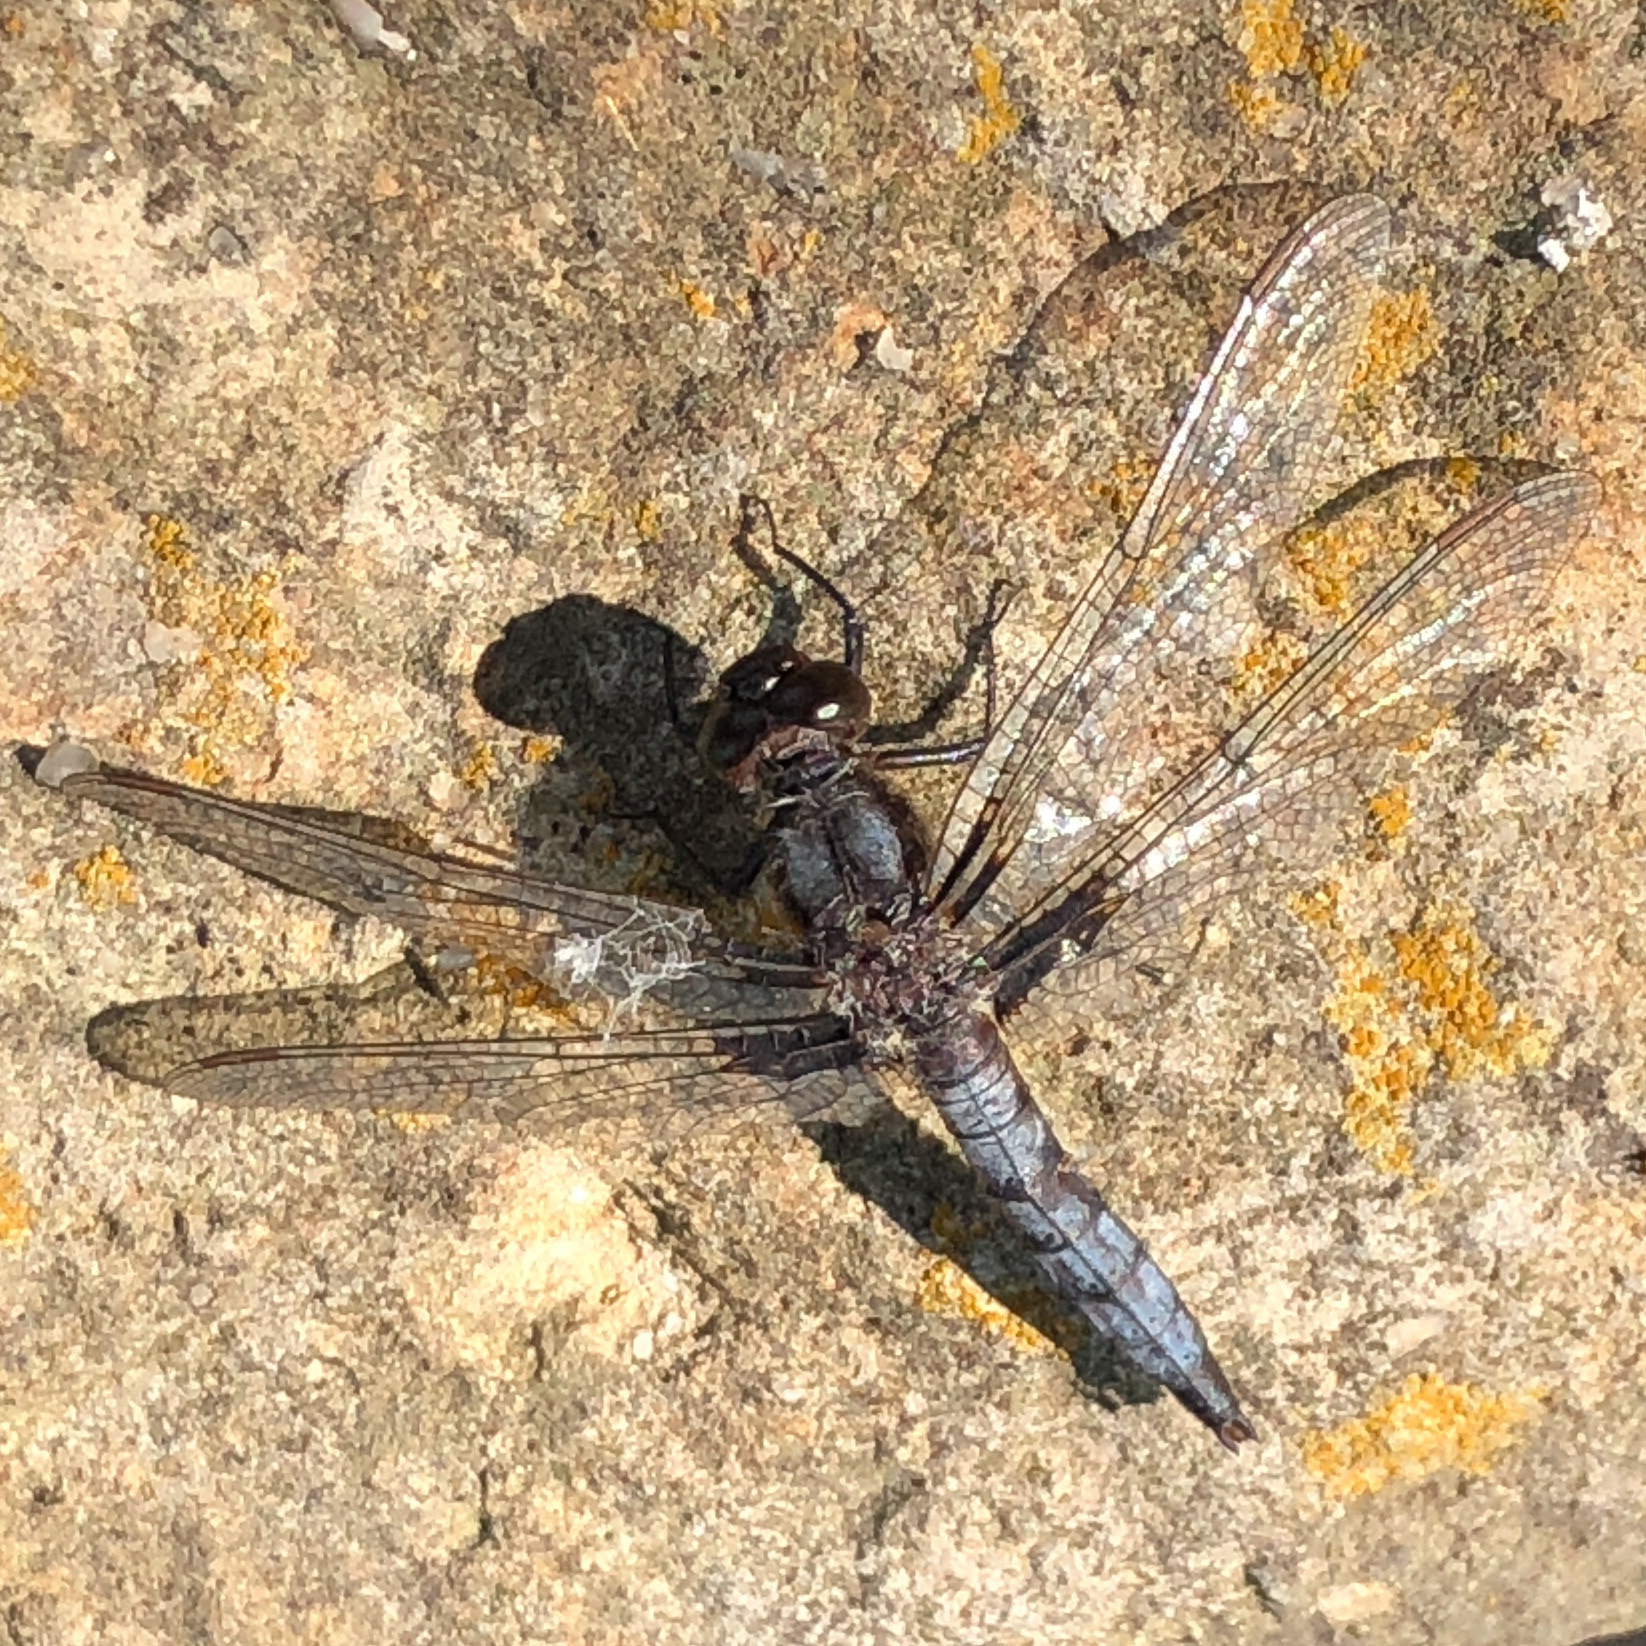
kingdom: Animalia
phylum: Arthropoda
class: Insecta
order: Odonata
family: Libellulidae
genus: Ladona
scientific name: Ladona deplanata
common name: Blue corporal
